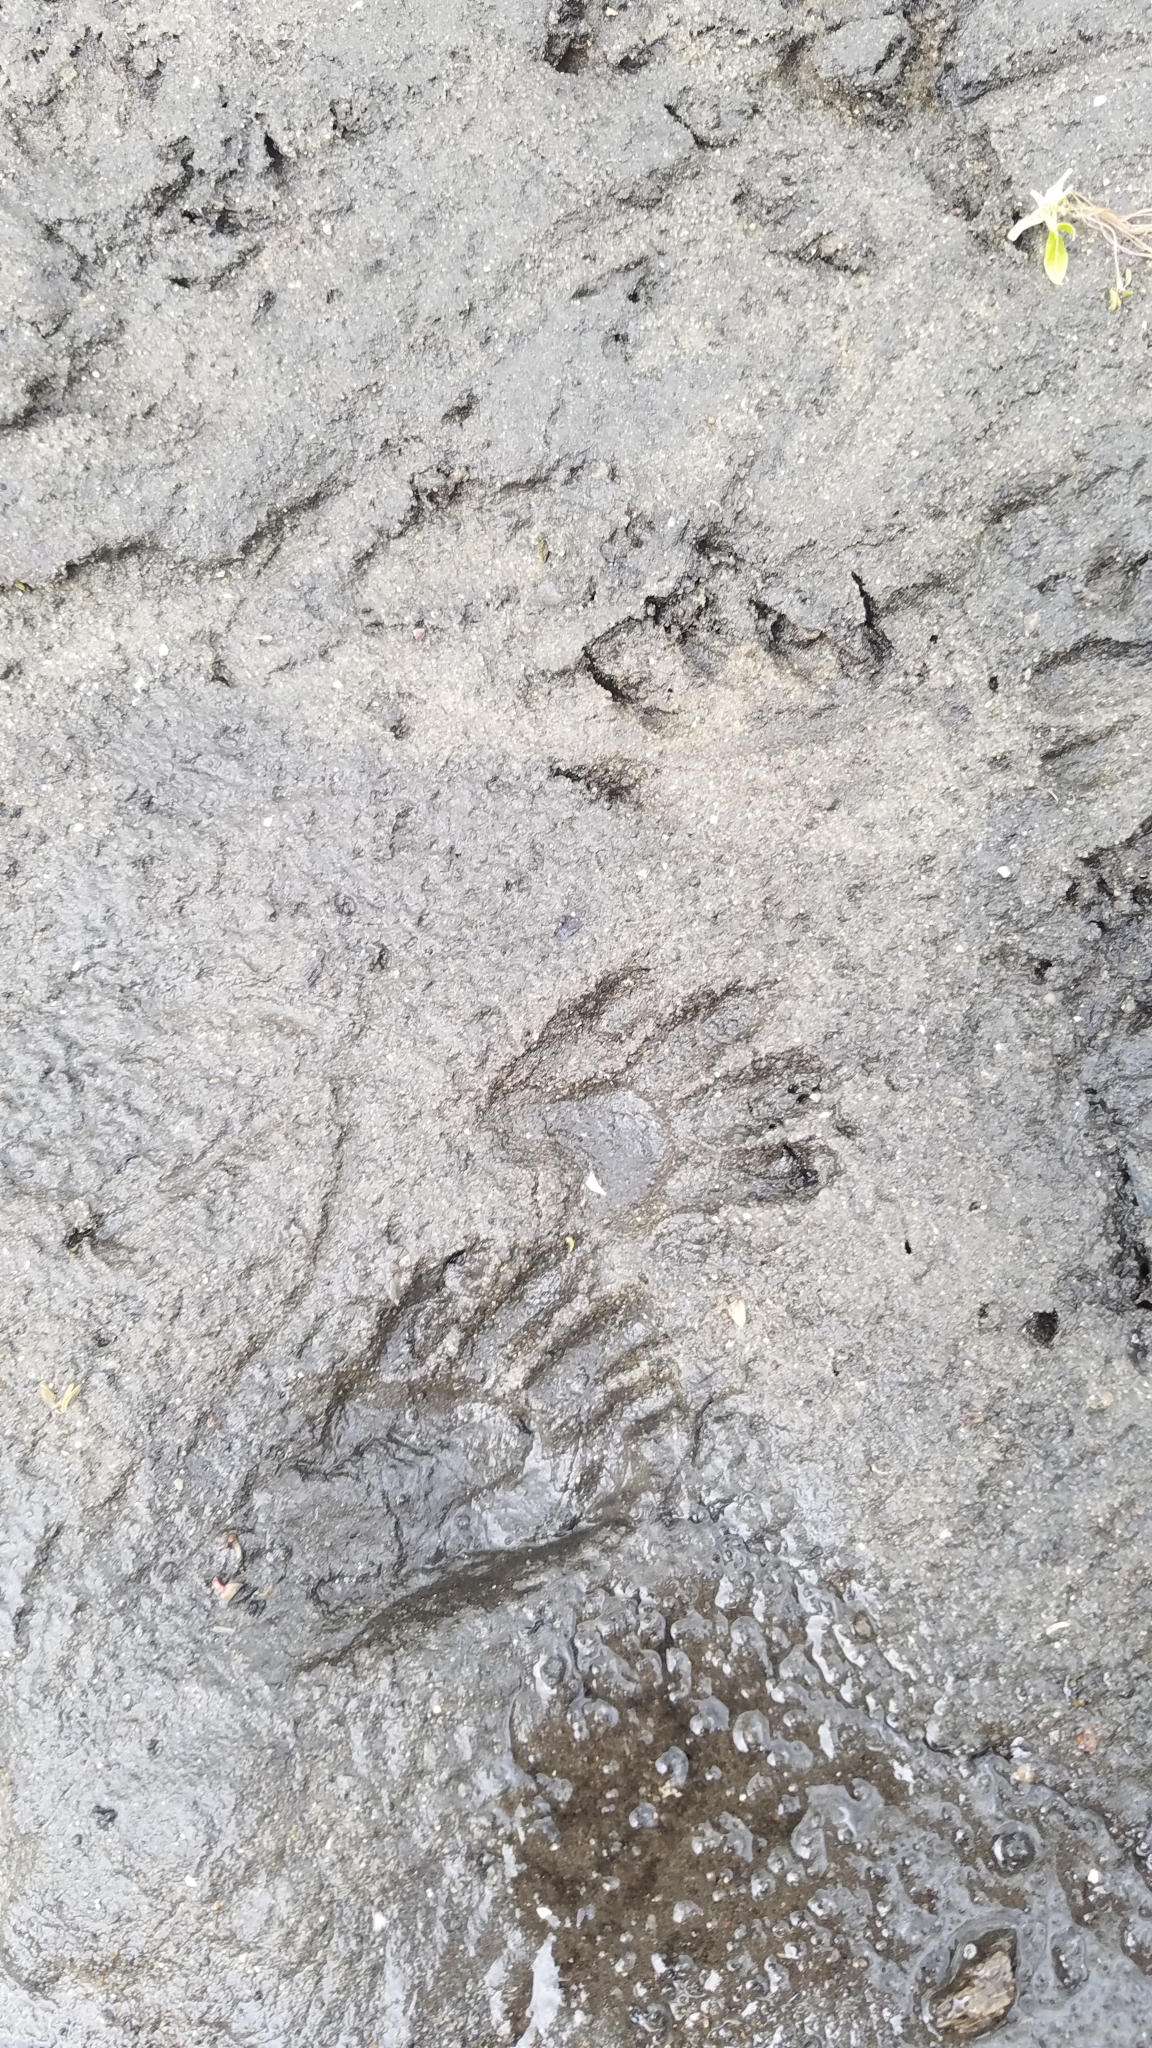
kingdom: Animalia
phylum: Chordata
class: Mammalia
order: Carnivora
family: Procyonidae
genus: Procyon
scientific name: Procyon lotor
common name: Raccoon
